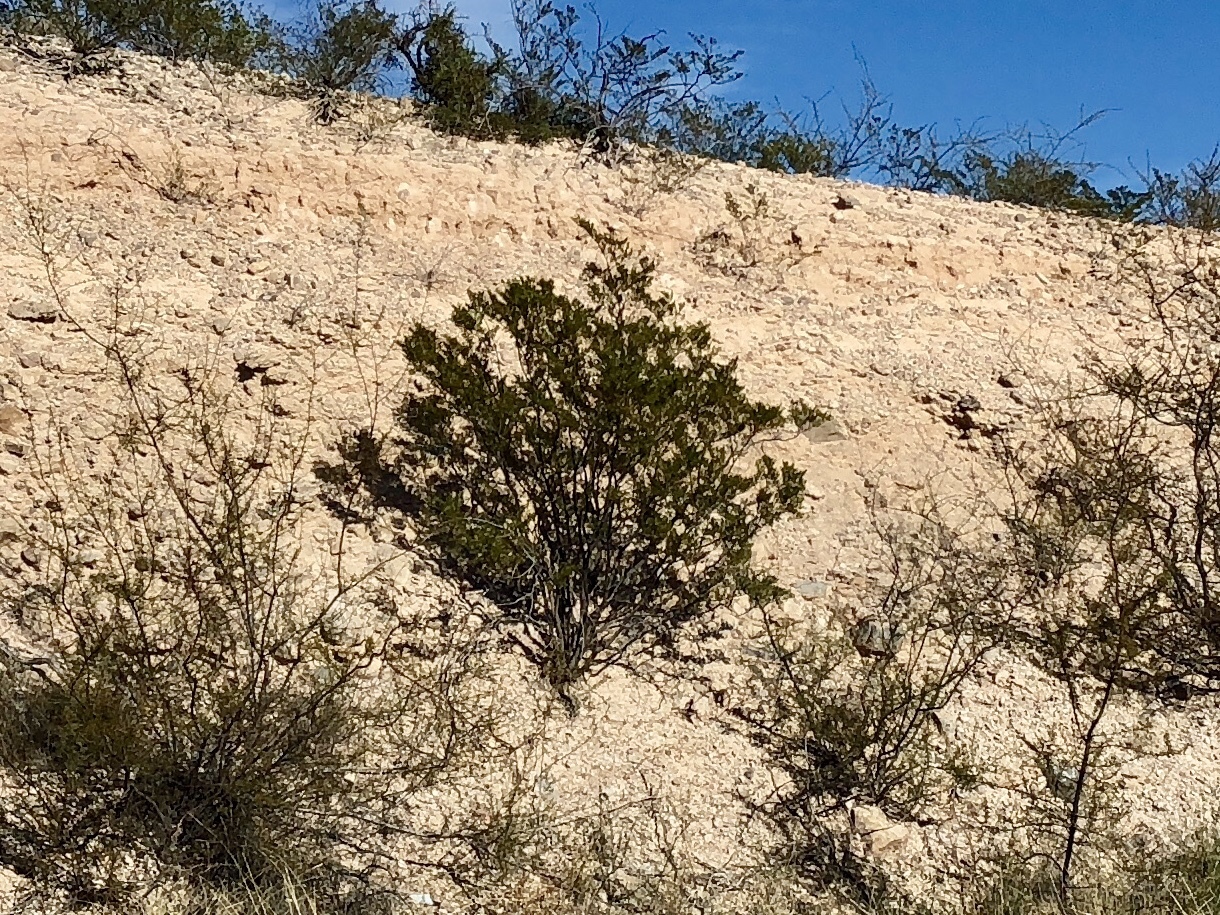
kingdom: Plantae
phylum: Tracheophyta
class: Magnoliopsida
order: Zygophyllales
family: Zygophyllaceae
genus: Larrea
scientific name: Larrea tridentata
